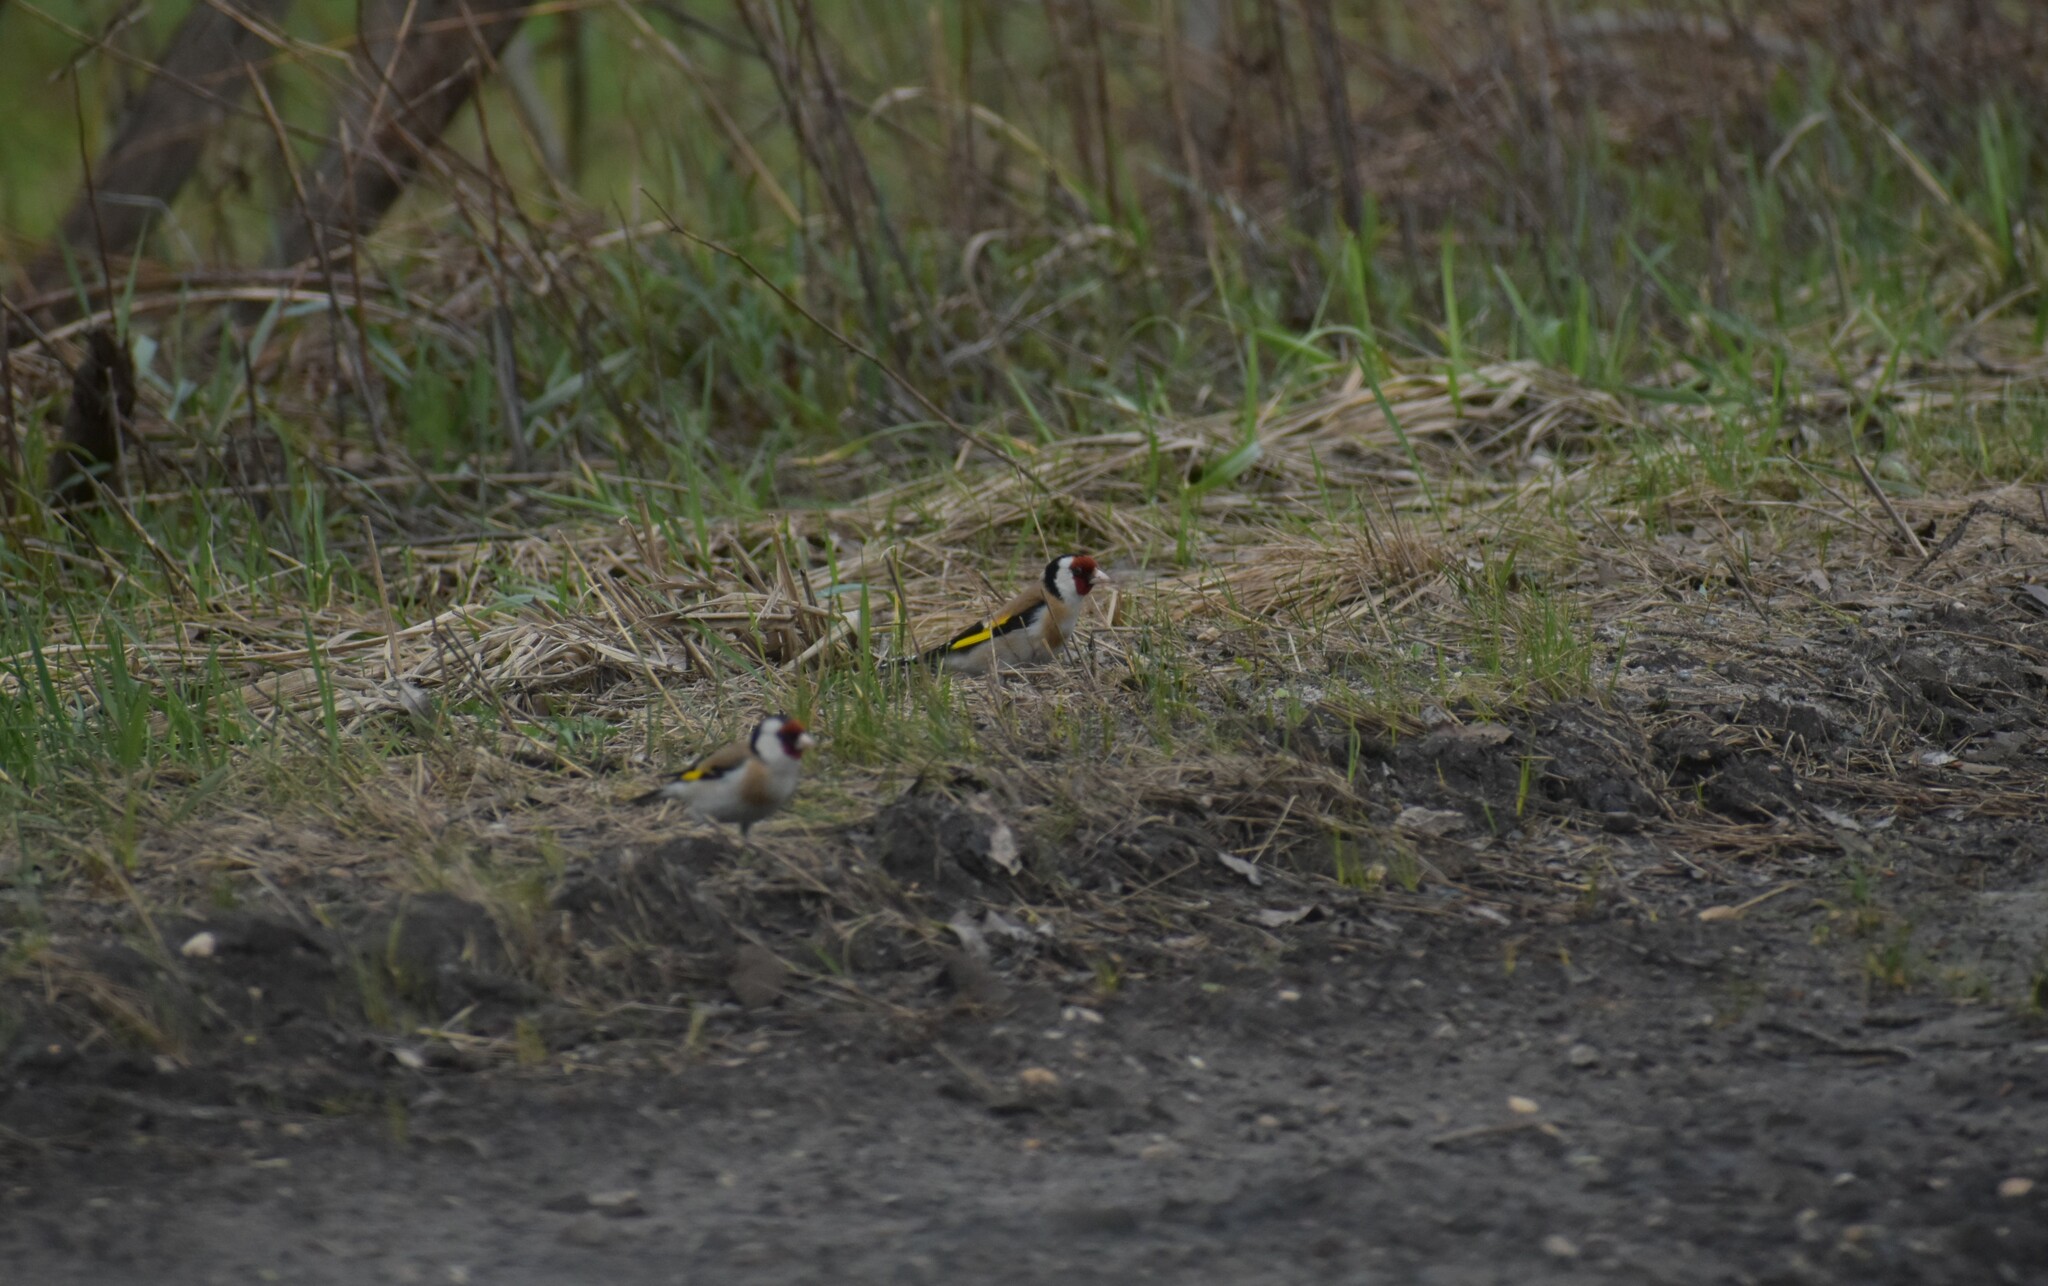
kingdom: Animalia
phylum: Chordata
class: Aves
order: Passeriformes
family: Fringillidae
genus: Carduelis
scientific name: Carduelis carduelis
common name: European goldfinch
